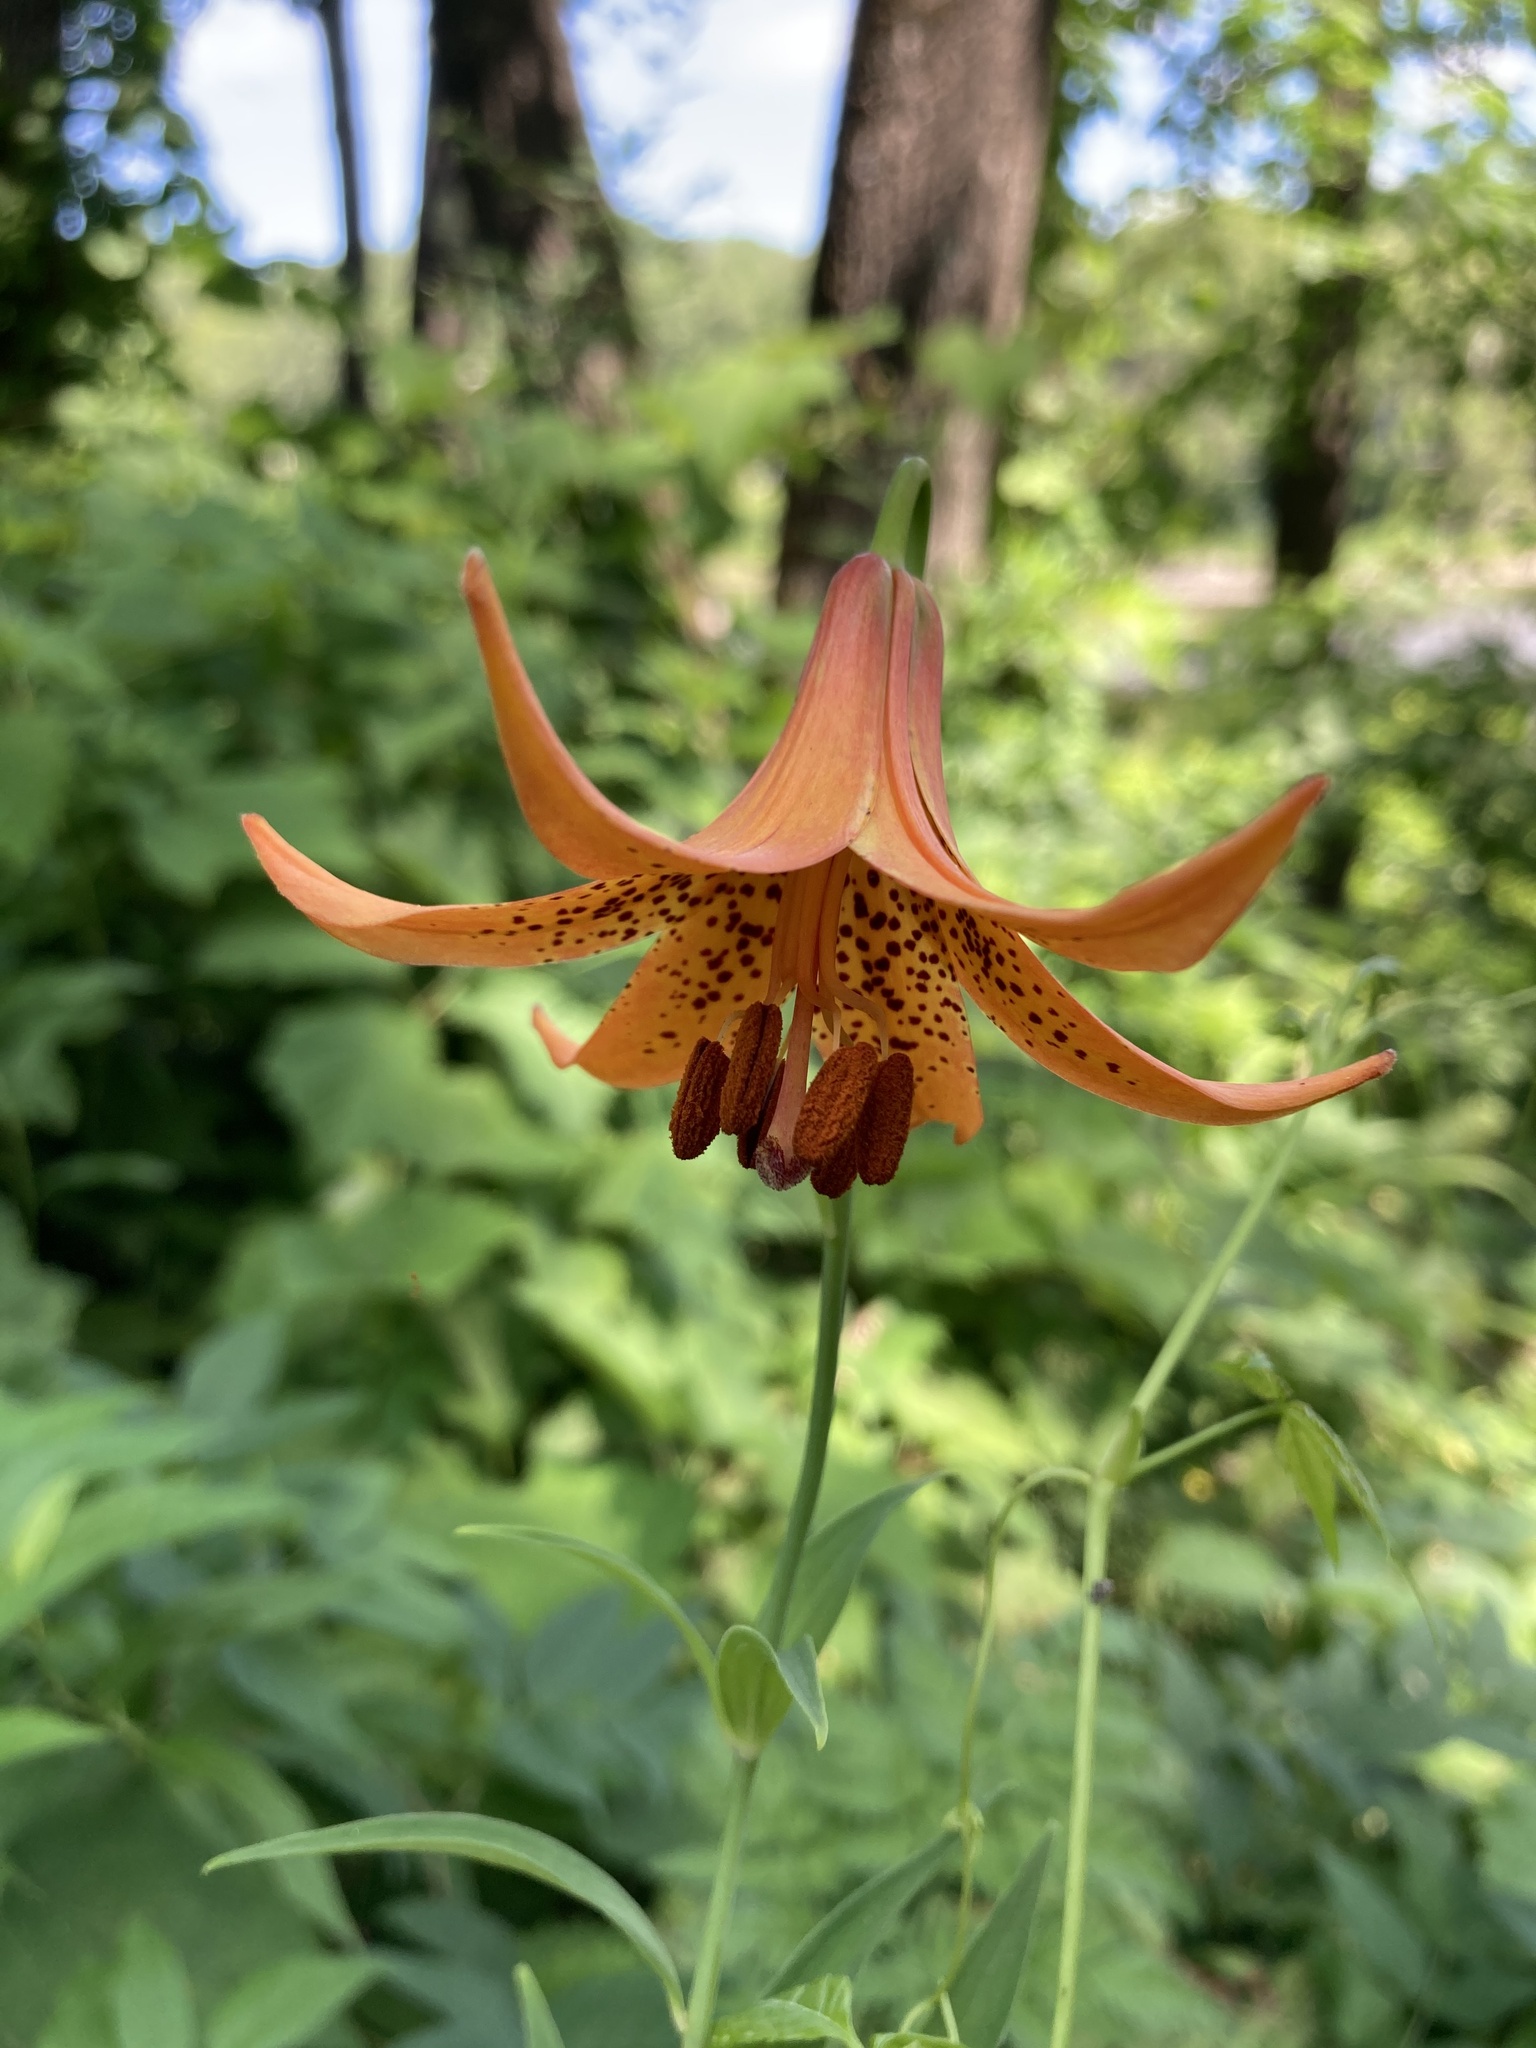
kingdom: Plantae
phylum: Tracheophyta
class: Liliopsida
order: Liliales
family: Liliaceae
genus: Lilium
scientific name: Lilium canadense
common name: Canada lily
